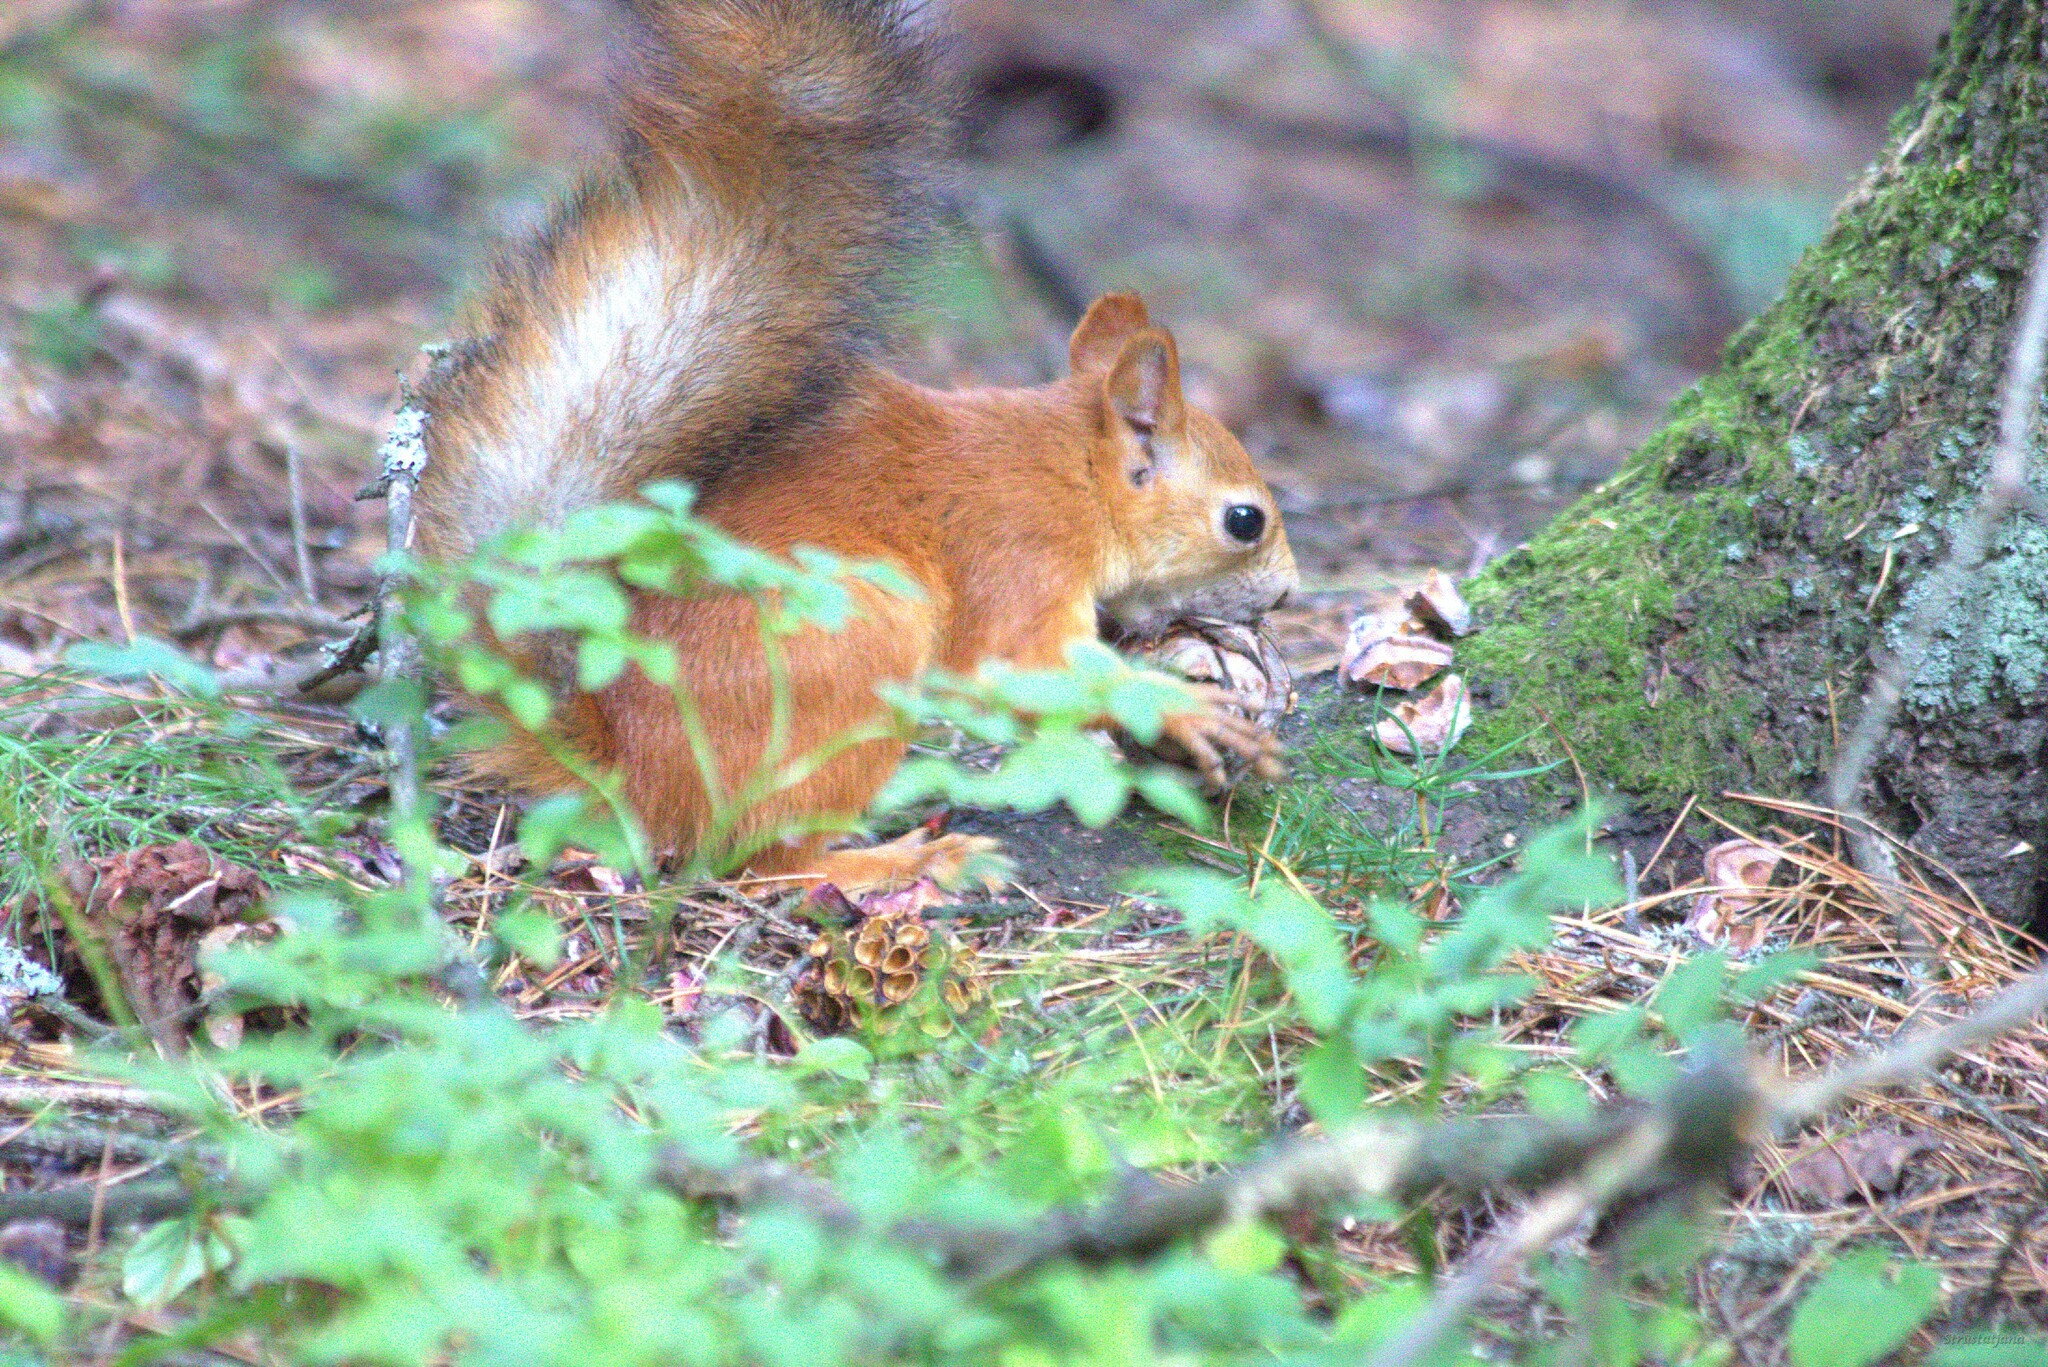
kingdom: Animalia
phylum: Chordata
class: Mammalia
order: Rodentia
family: Sciuridae
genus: Sciurus
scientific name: Sciurus vulgaris
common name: Eurasian red squirrel
